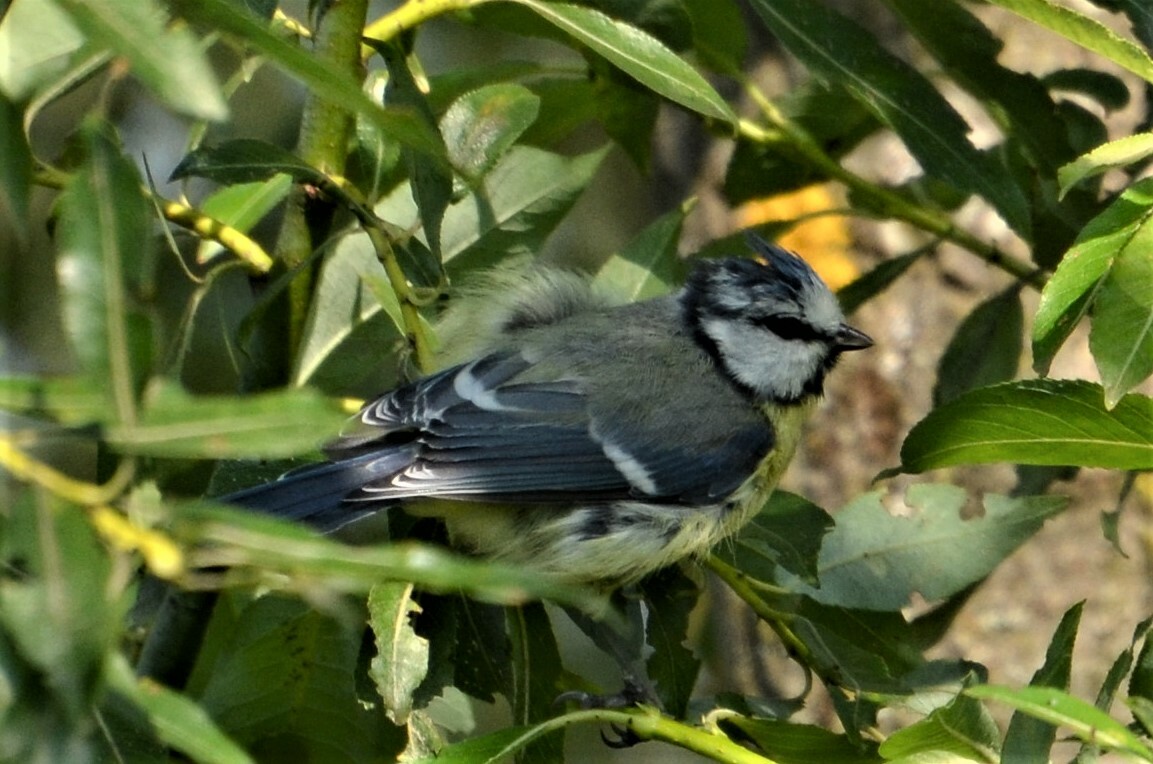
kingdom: Animalia
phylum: Chordata
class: Aves
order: Passeriformes
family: Paridae
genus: Cyanistes
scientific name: Cyanistes caeruleus
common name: Eurasian blue tit
